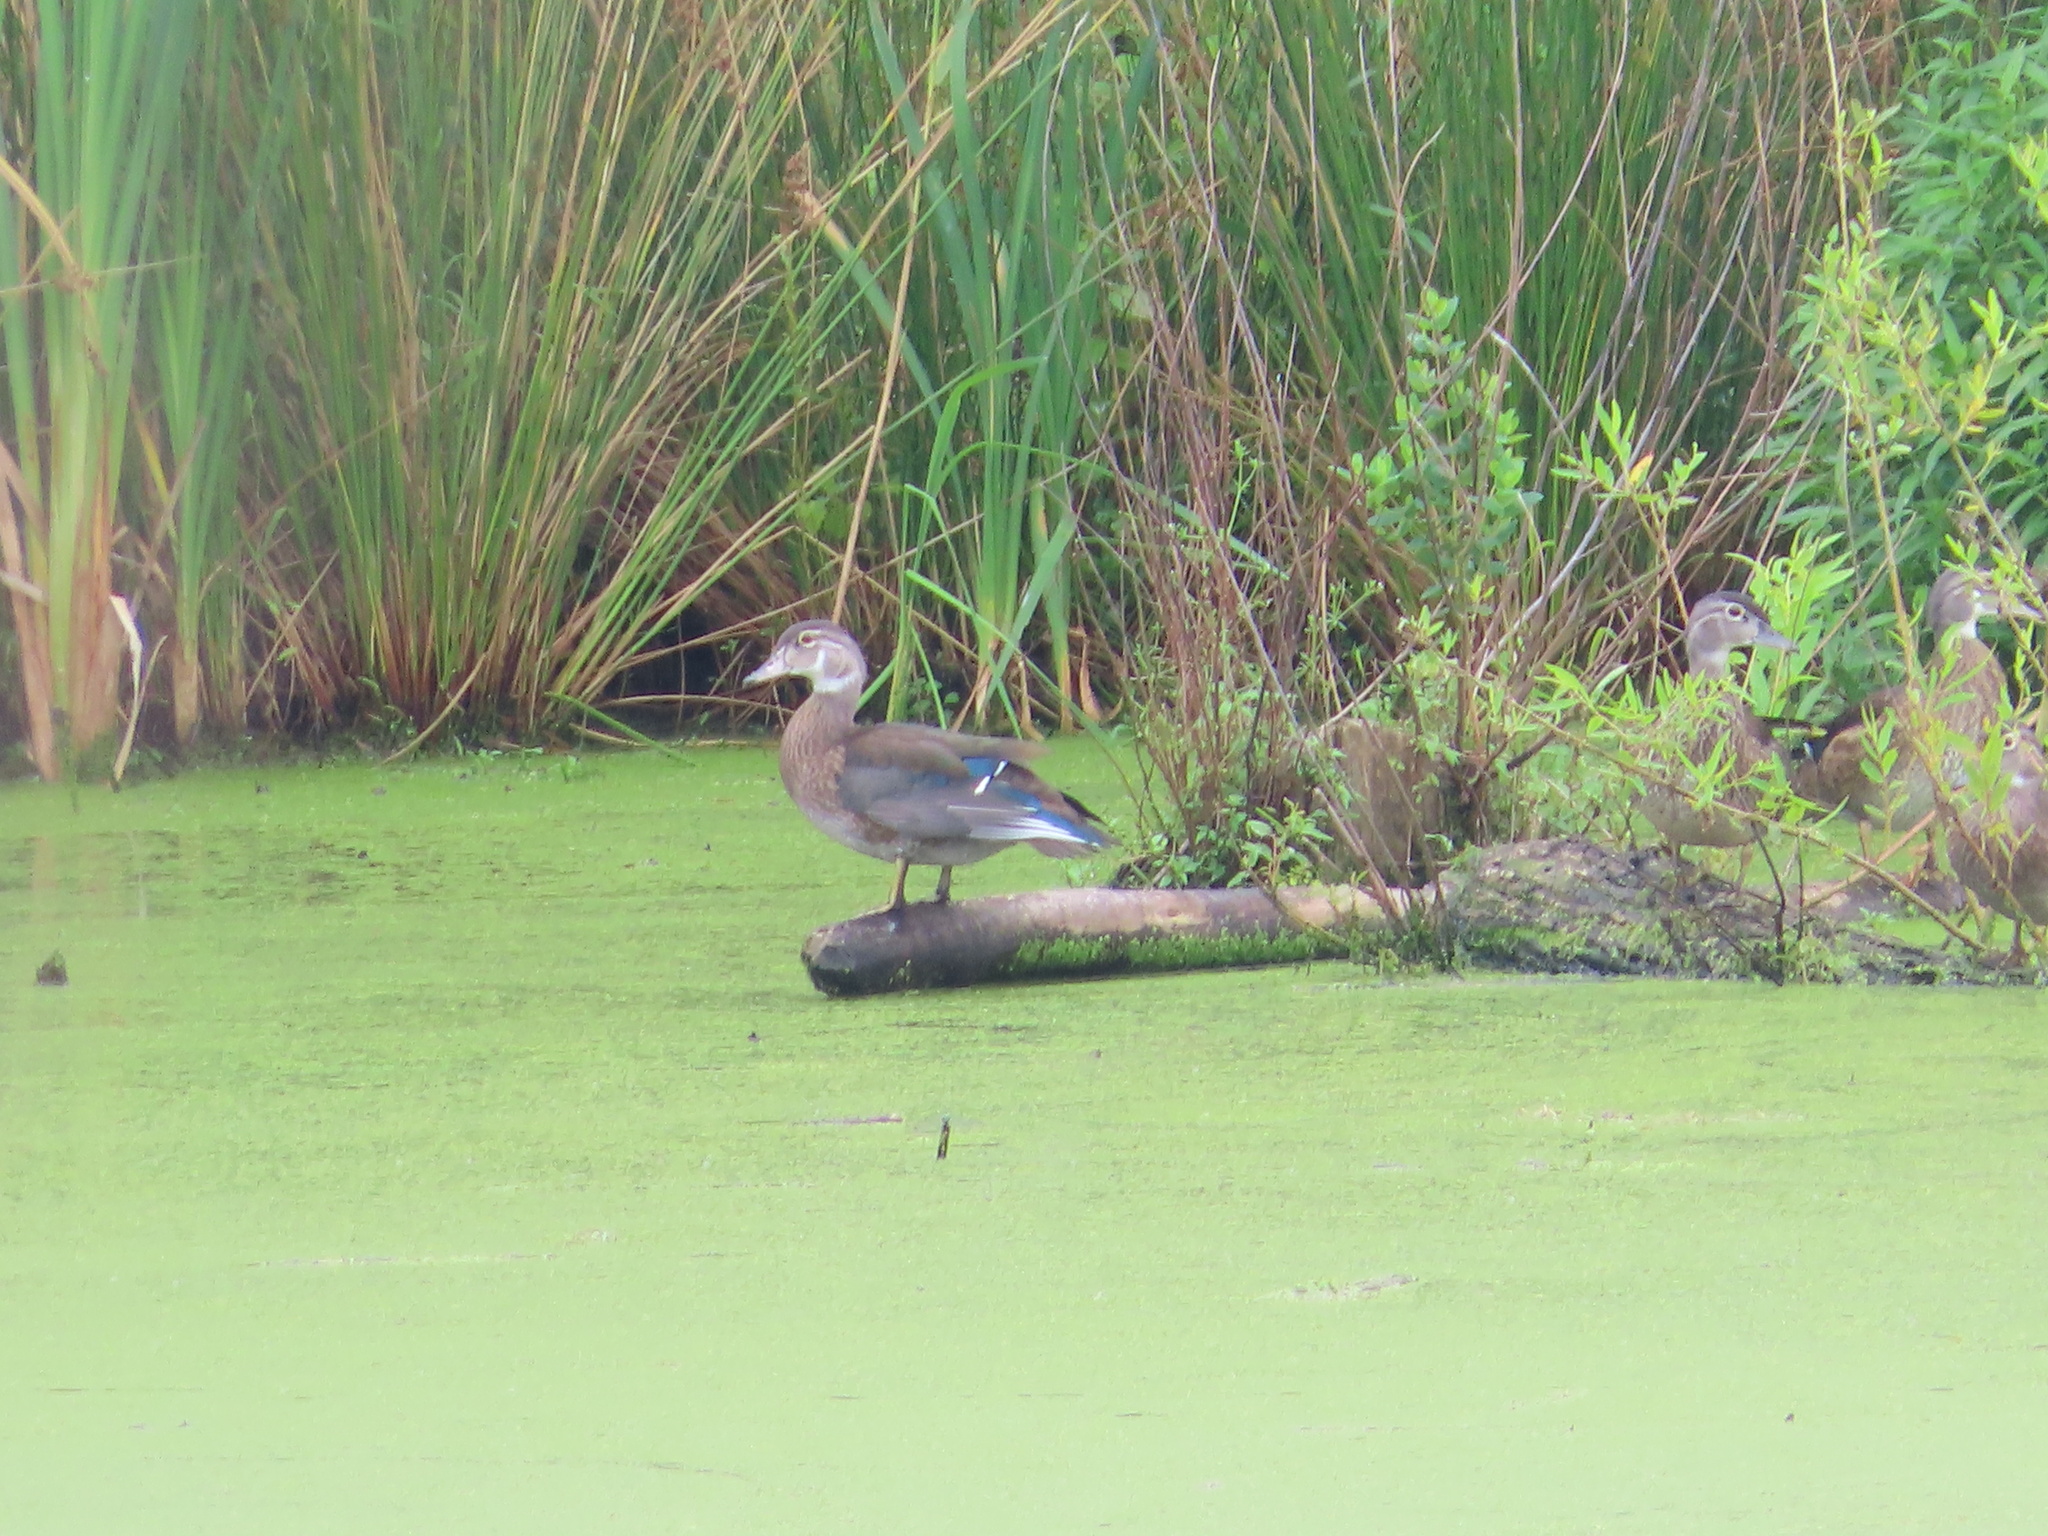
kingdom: Animalia
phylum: Chordata
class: Aves
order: Anseriformes
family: Anatidae
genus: Aix
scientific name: Aix sponsa
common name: Wood duck
